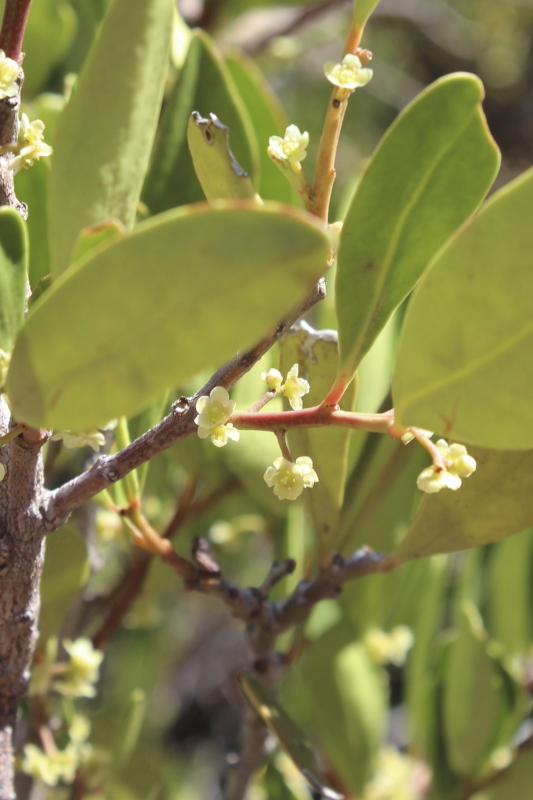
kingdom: Plantae
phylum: Tracheophyta
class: Magnoliopsida
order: Celastrales
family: Celastraceae
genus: Gymnosporia
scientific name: Gymnosporia laurina
